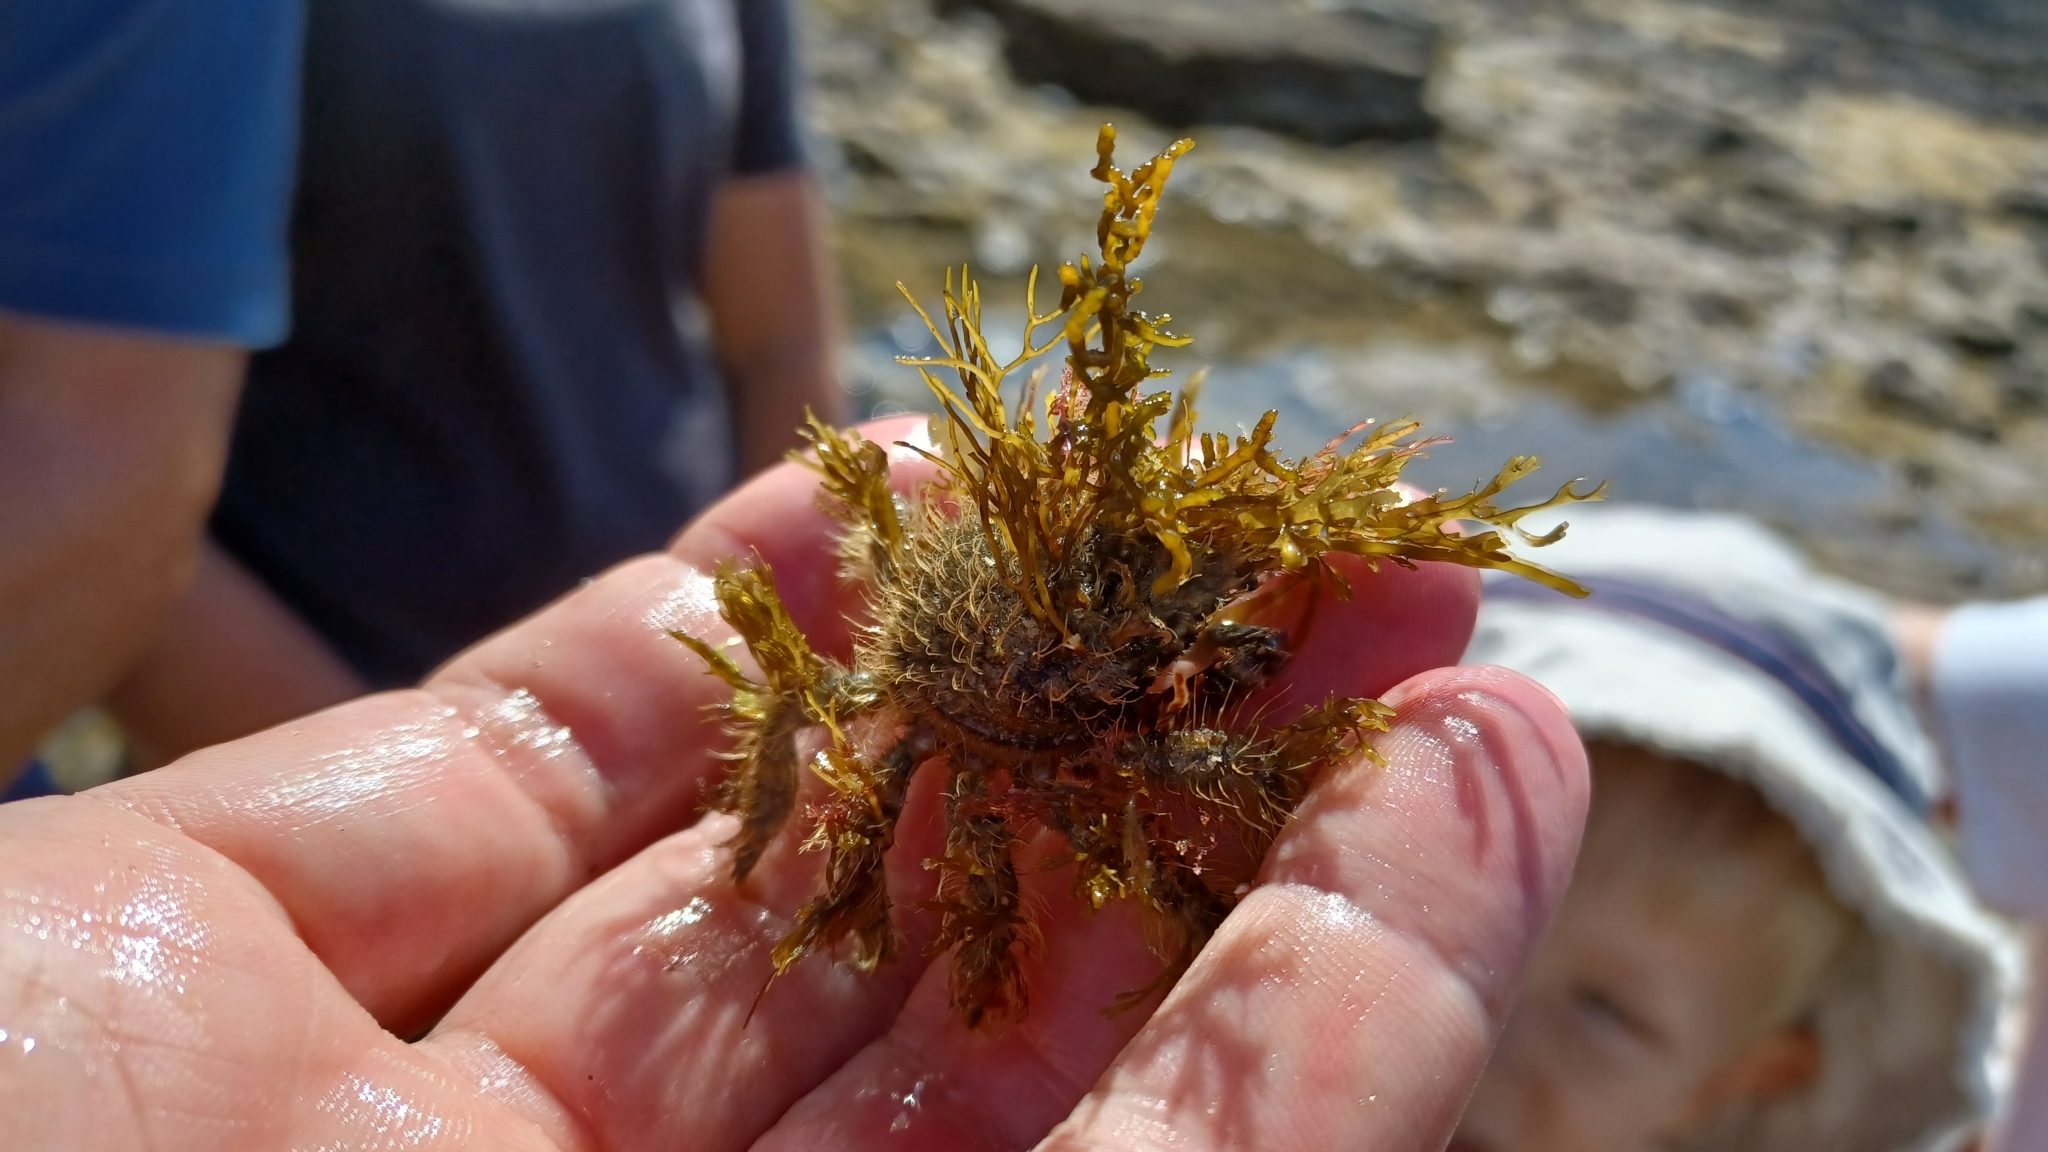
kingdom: Animalia
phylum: Arthropoda
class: Malacostraca
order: Decapoda
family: Majidae
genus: Notomithrax
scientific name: Notomithrax ursus
